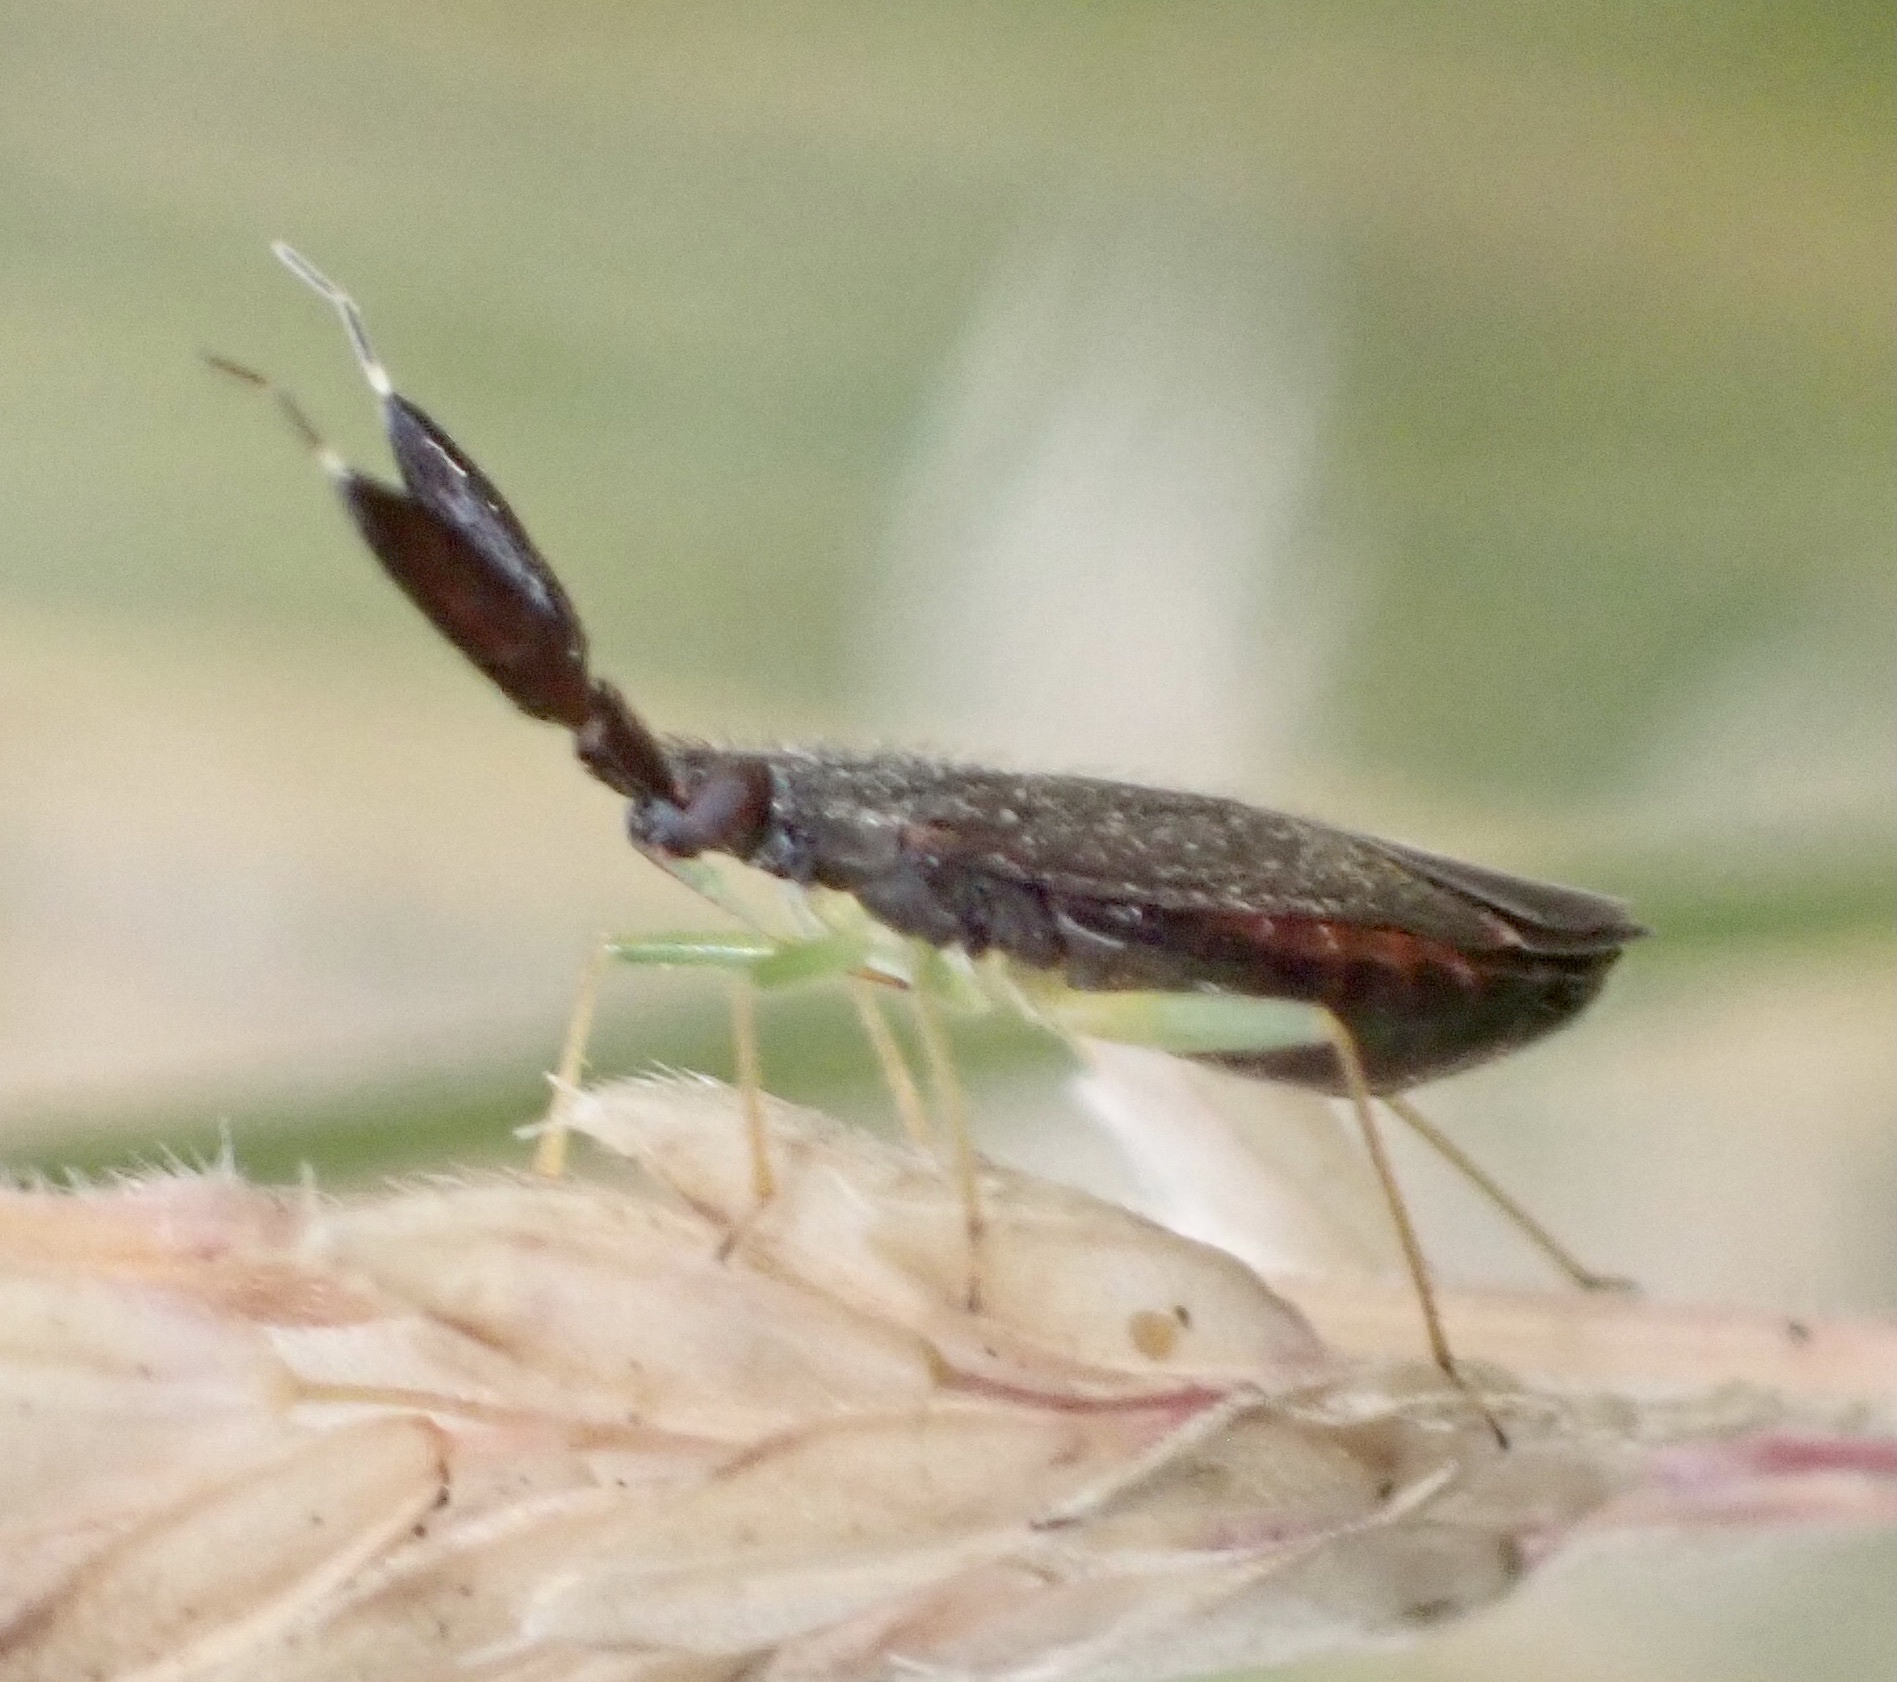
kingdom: Animalia
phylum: Arthropoda
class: Insecta
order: Hemiptera
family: Miridae
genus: Heterotoma
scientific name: Heterotoma planicornis
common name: Plant bug
